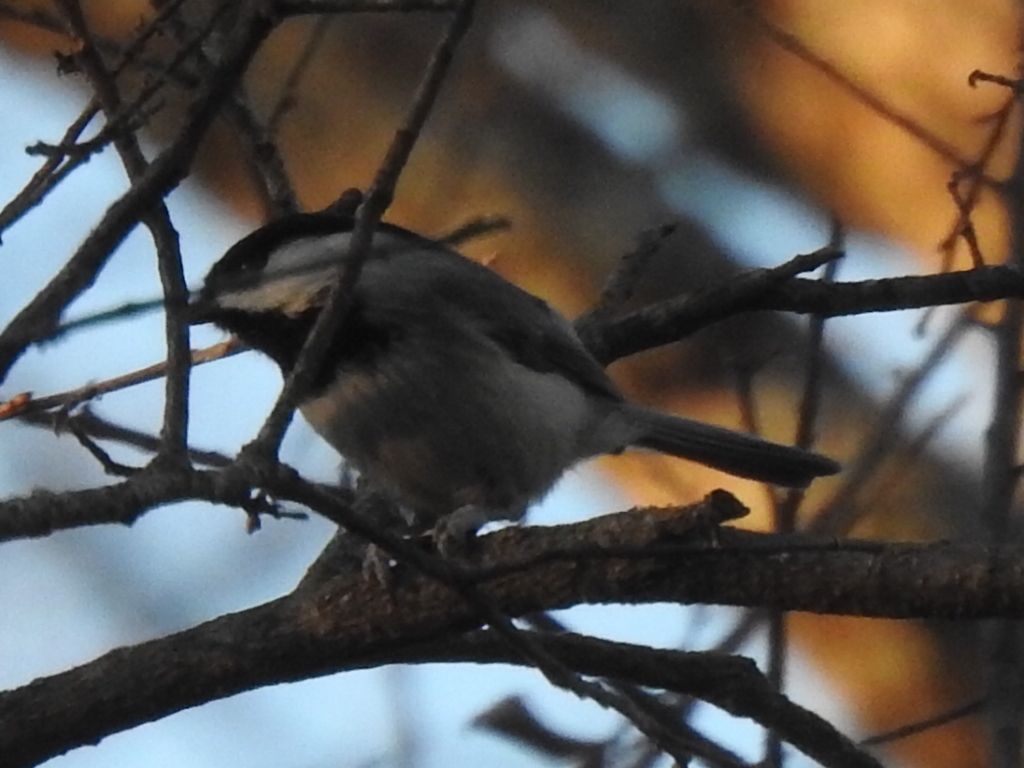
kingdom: Animalia
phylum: Chordata
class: Aves
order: Passeriformes
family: Paridae
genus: Poecile
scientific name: Poecile carolinensis
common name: Carolina chickadee
